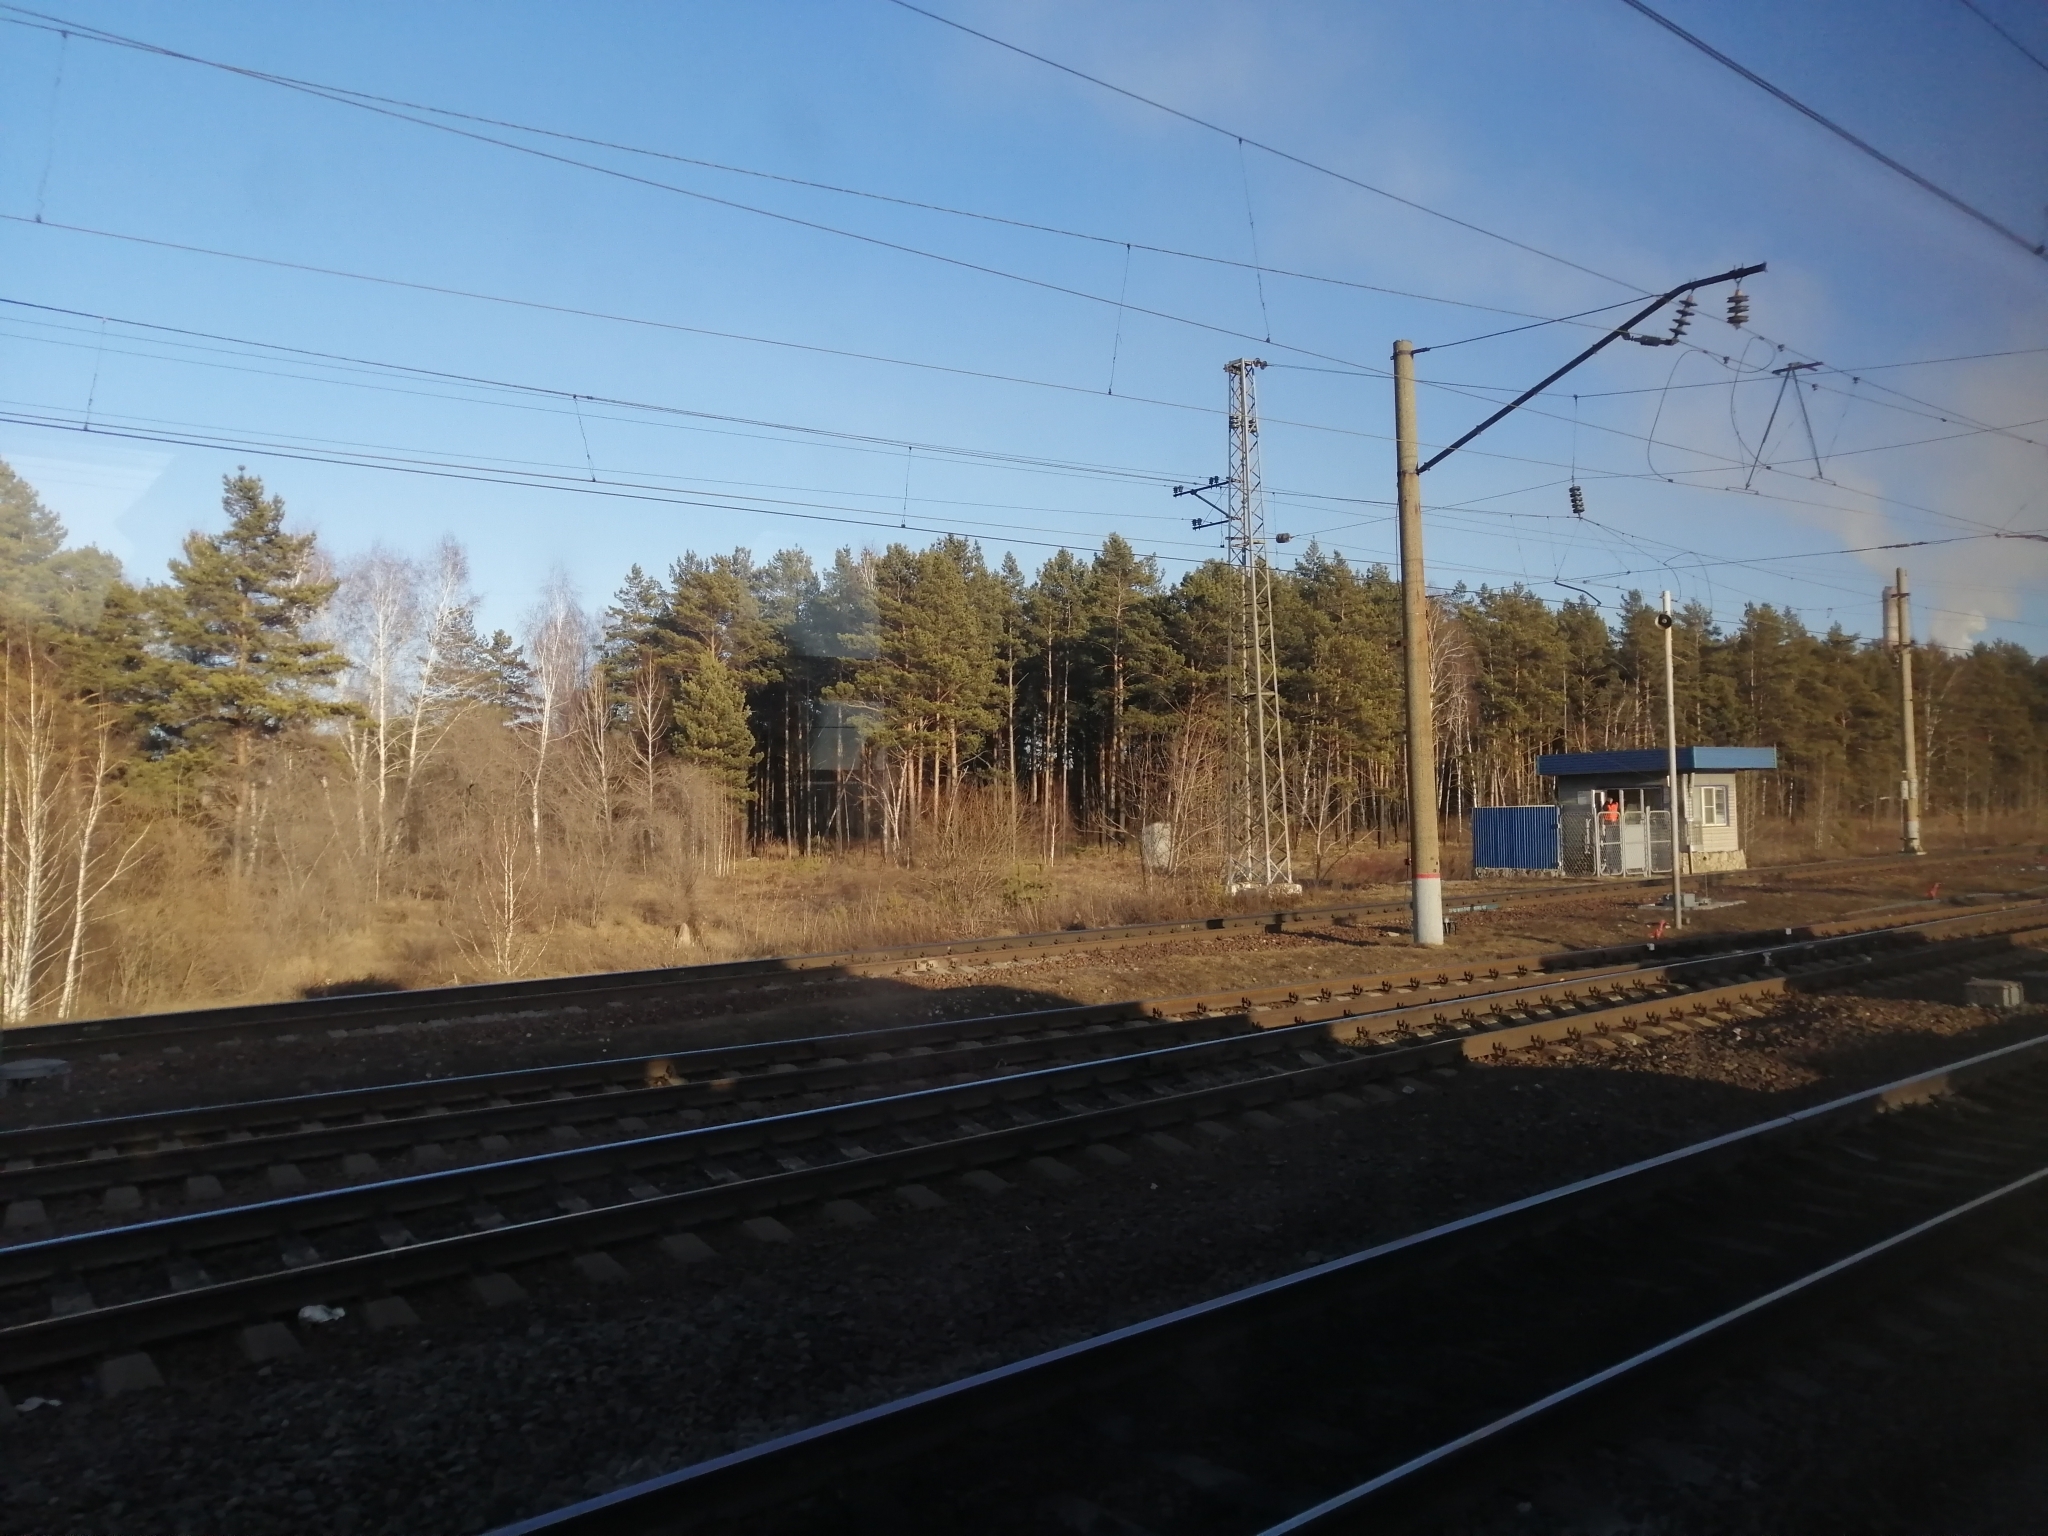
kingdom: Plantae
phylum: Tracheophyta
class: Pinopsida
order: Pinales
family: Pinaceae
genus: Pinus
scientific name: Pinus sylvestris
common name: Scots pine
